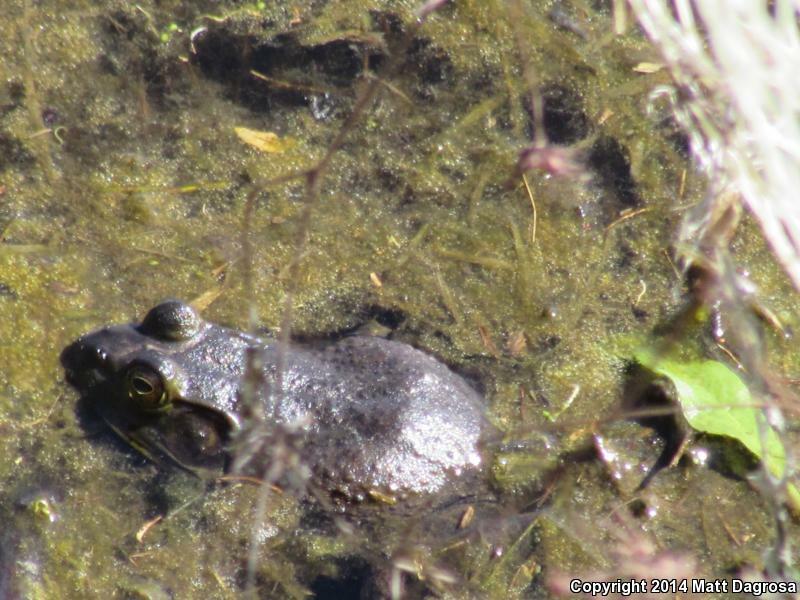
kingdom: Animalia
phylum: Chordata
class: Amphibia
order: Anura
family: Ranidae
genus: Lithobates
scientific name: Lithobates catesbeianus
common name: American bullfrog
